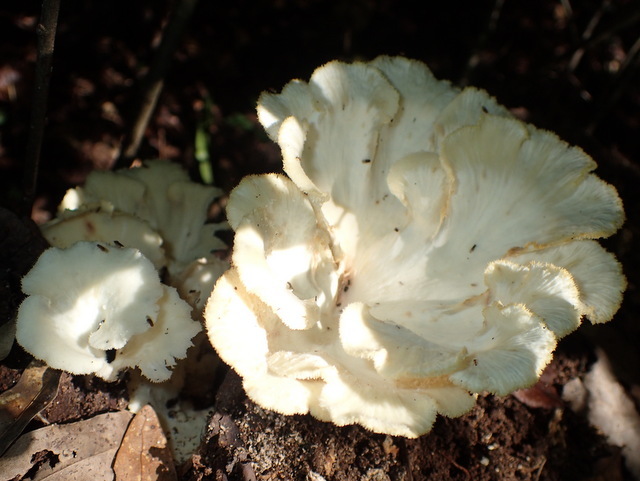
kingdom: Fungi
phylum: Basidiomycota
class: Agaricomycetes
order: Polyporales
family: Polyporaceae
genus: Favolus
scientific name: Favolus tenuiculus
